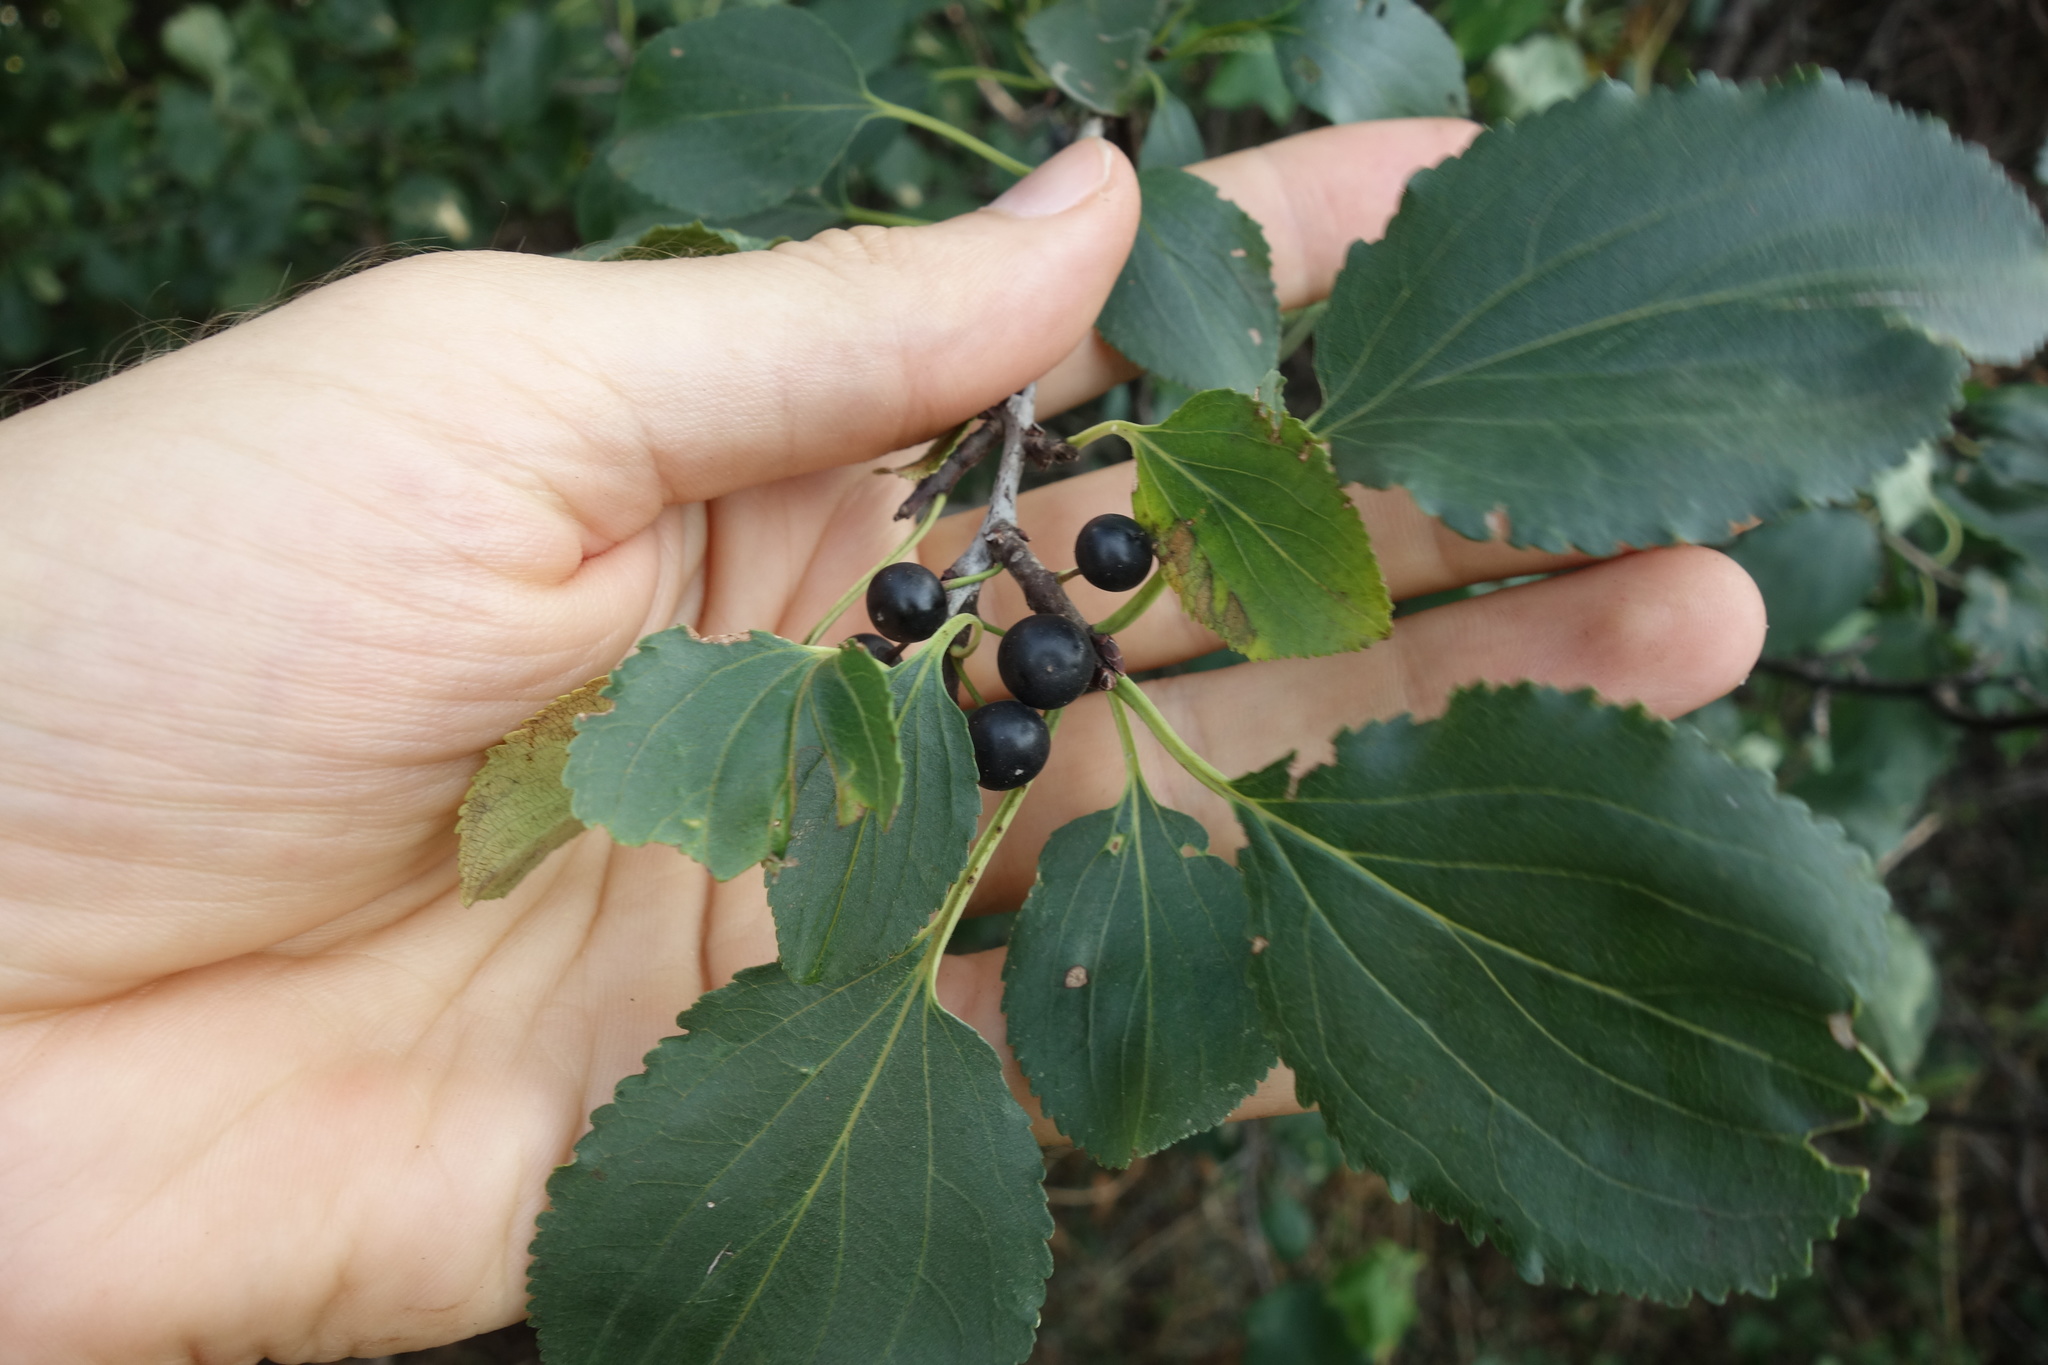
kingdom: Plantae
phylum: Tracheophyta
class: Magnoliopsida
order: Rosales
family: Rhamnaceae
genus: Rhamnus
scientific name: Rhamnus cathartica
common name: Common buckthorn
